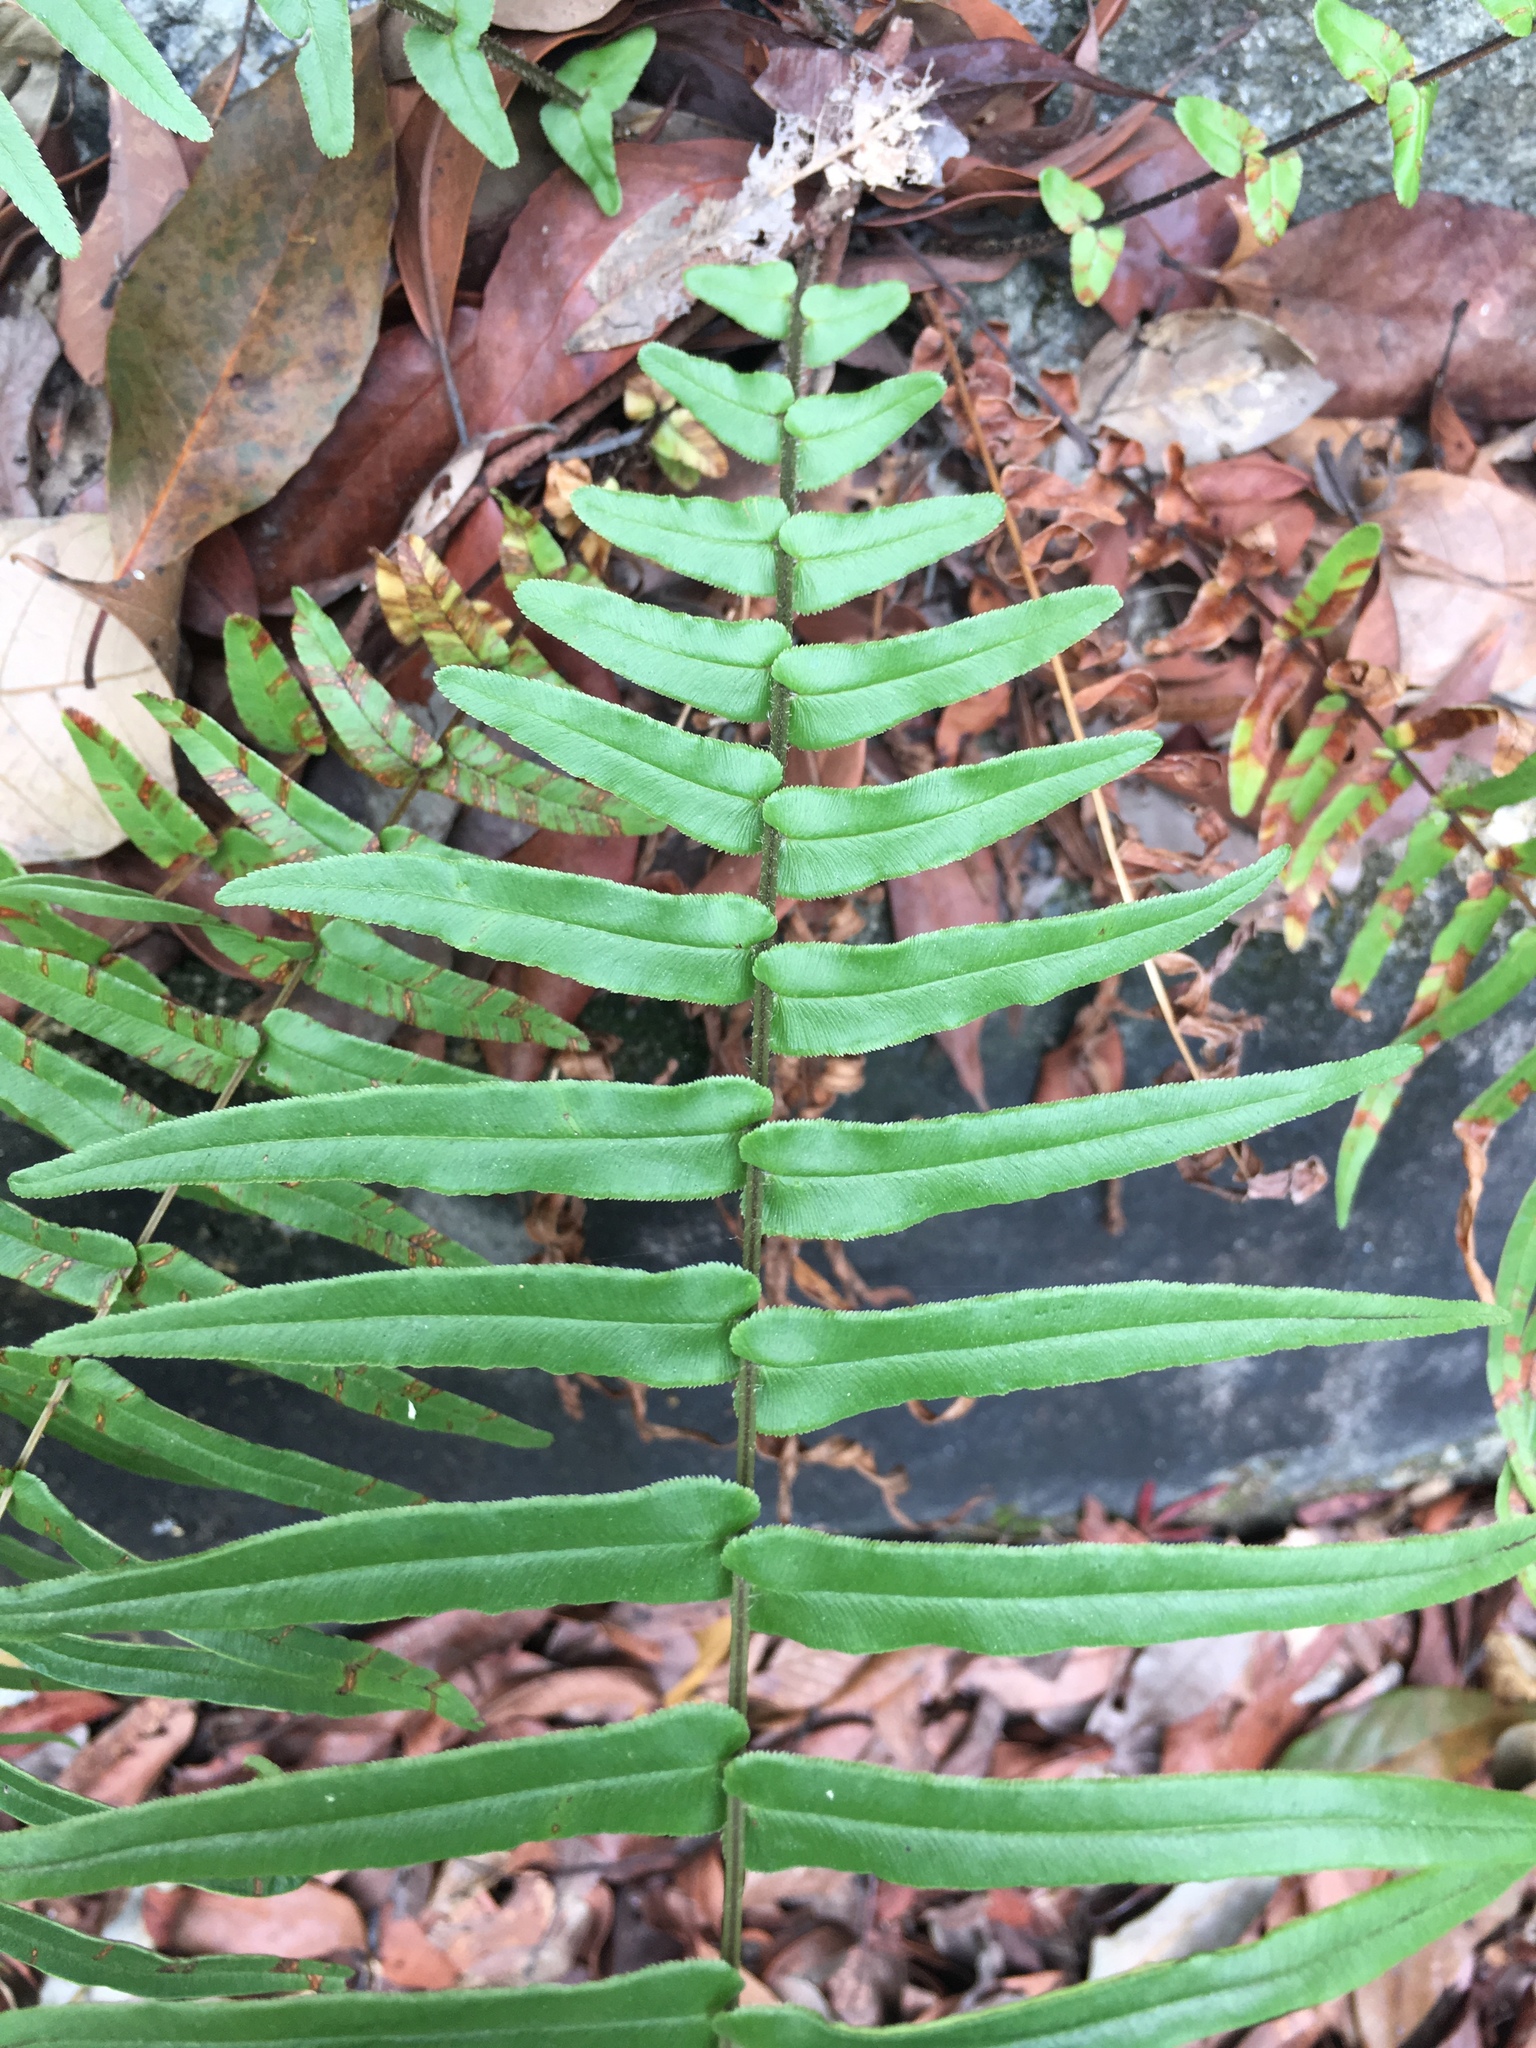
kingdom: Plantae
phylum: Tracheophyta
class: Polypodiopsida
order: Polypodiales
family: Pteridaceae
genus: Pteris
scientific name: Pteris vittata
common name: Ladder brake
